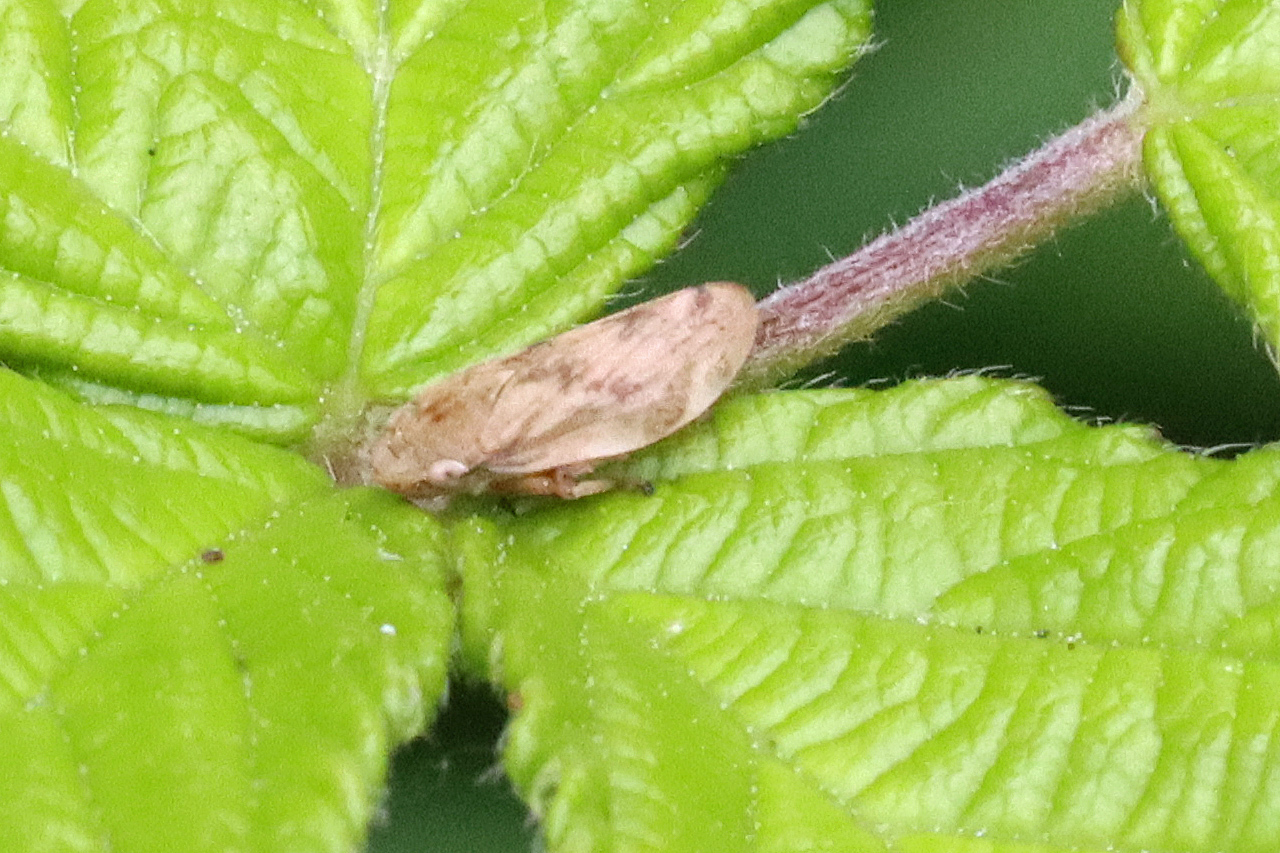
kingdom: Animalia
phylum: Arthropoda
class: Insecta
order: Hemiptera
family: Aphrophoridae
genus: Philaenus
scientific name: Philaenus spumarius
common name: Meadow spittlebug
